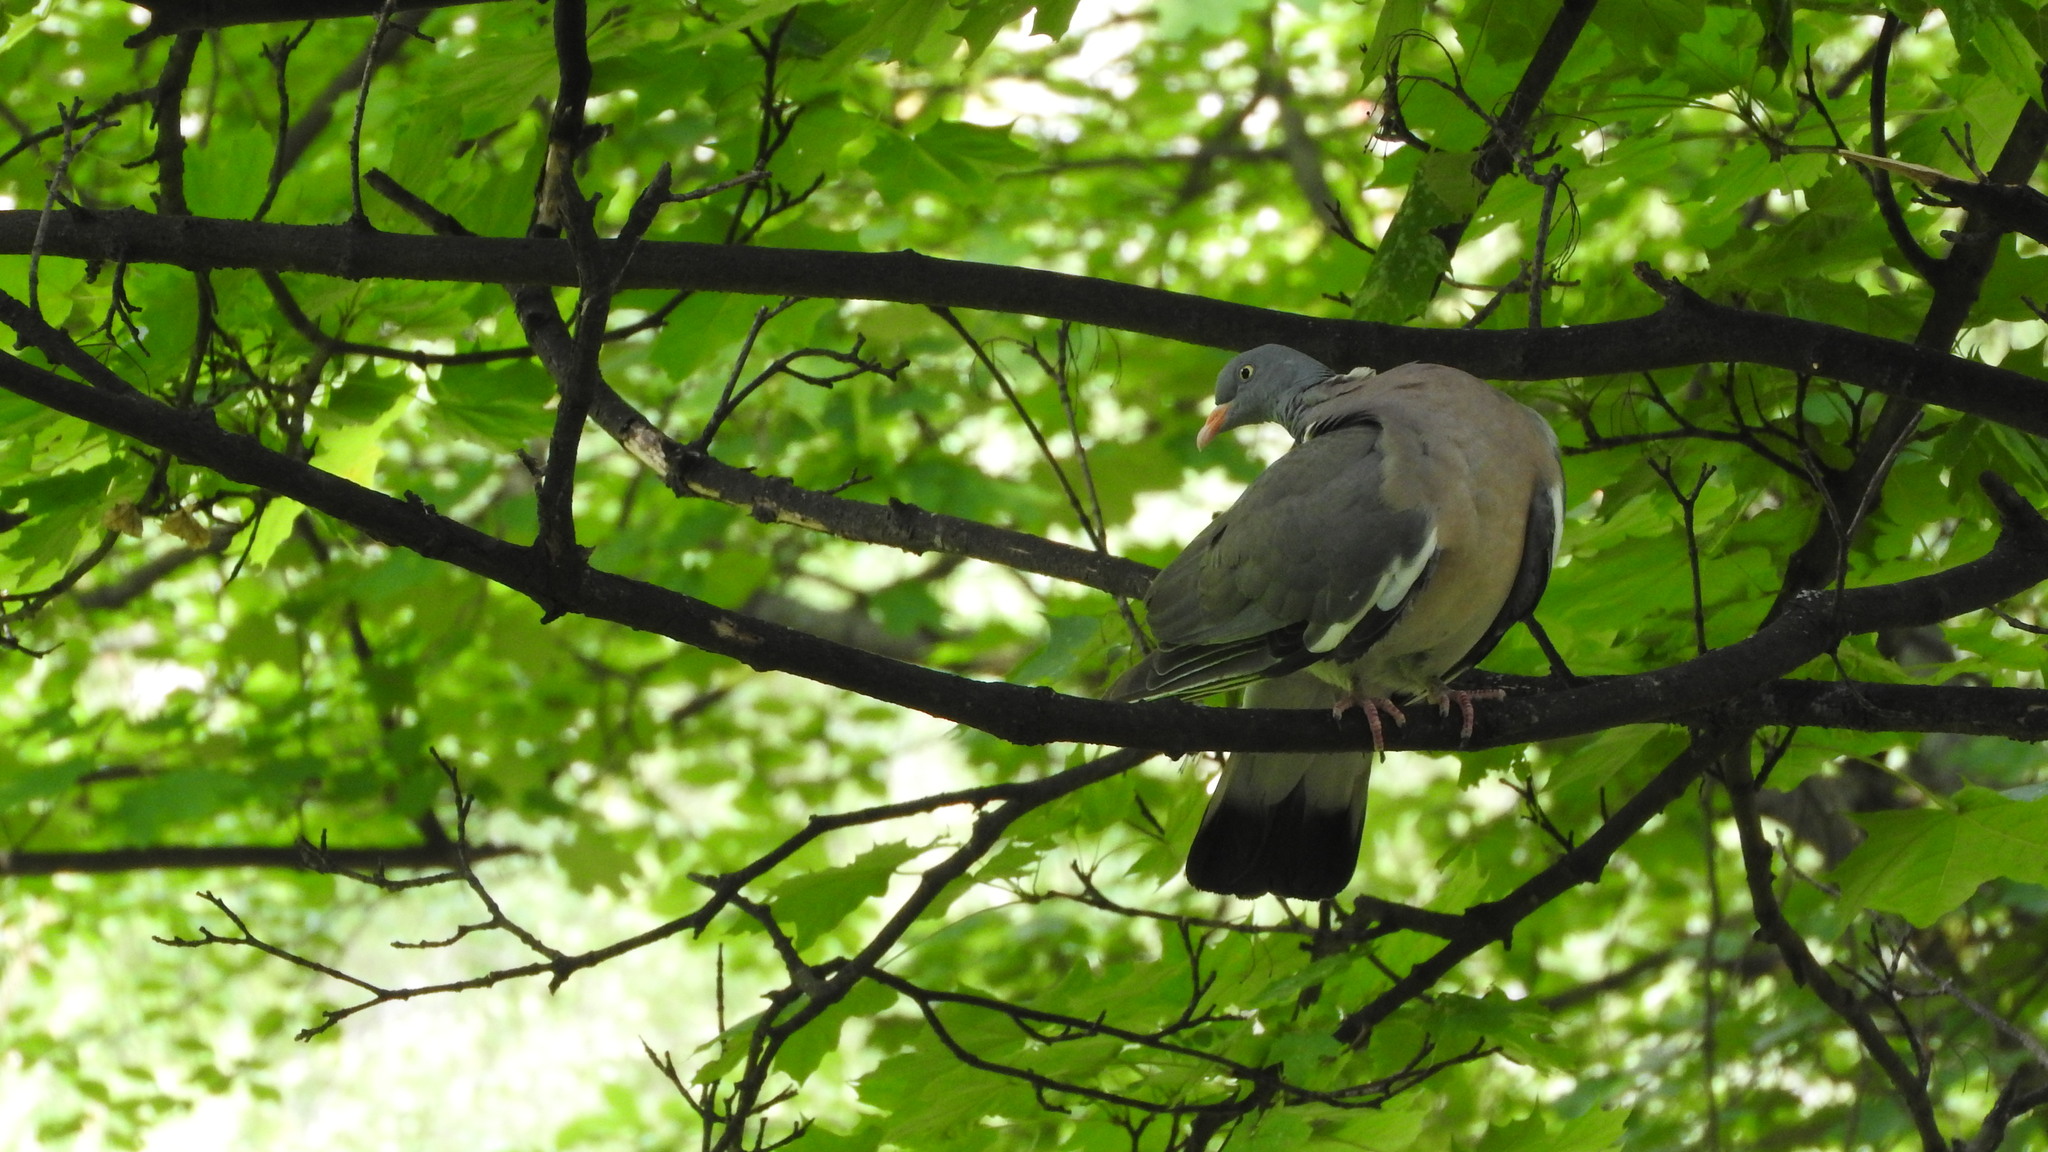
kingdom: Animalia
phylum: Chordata
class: Aves
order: Columbiformes
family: Columbidae
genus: Columba
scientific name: Columba palumbus
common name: Common wood pigeon
